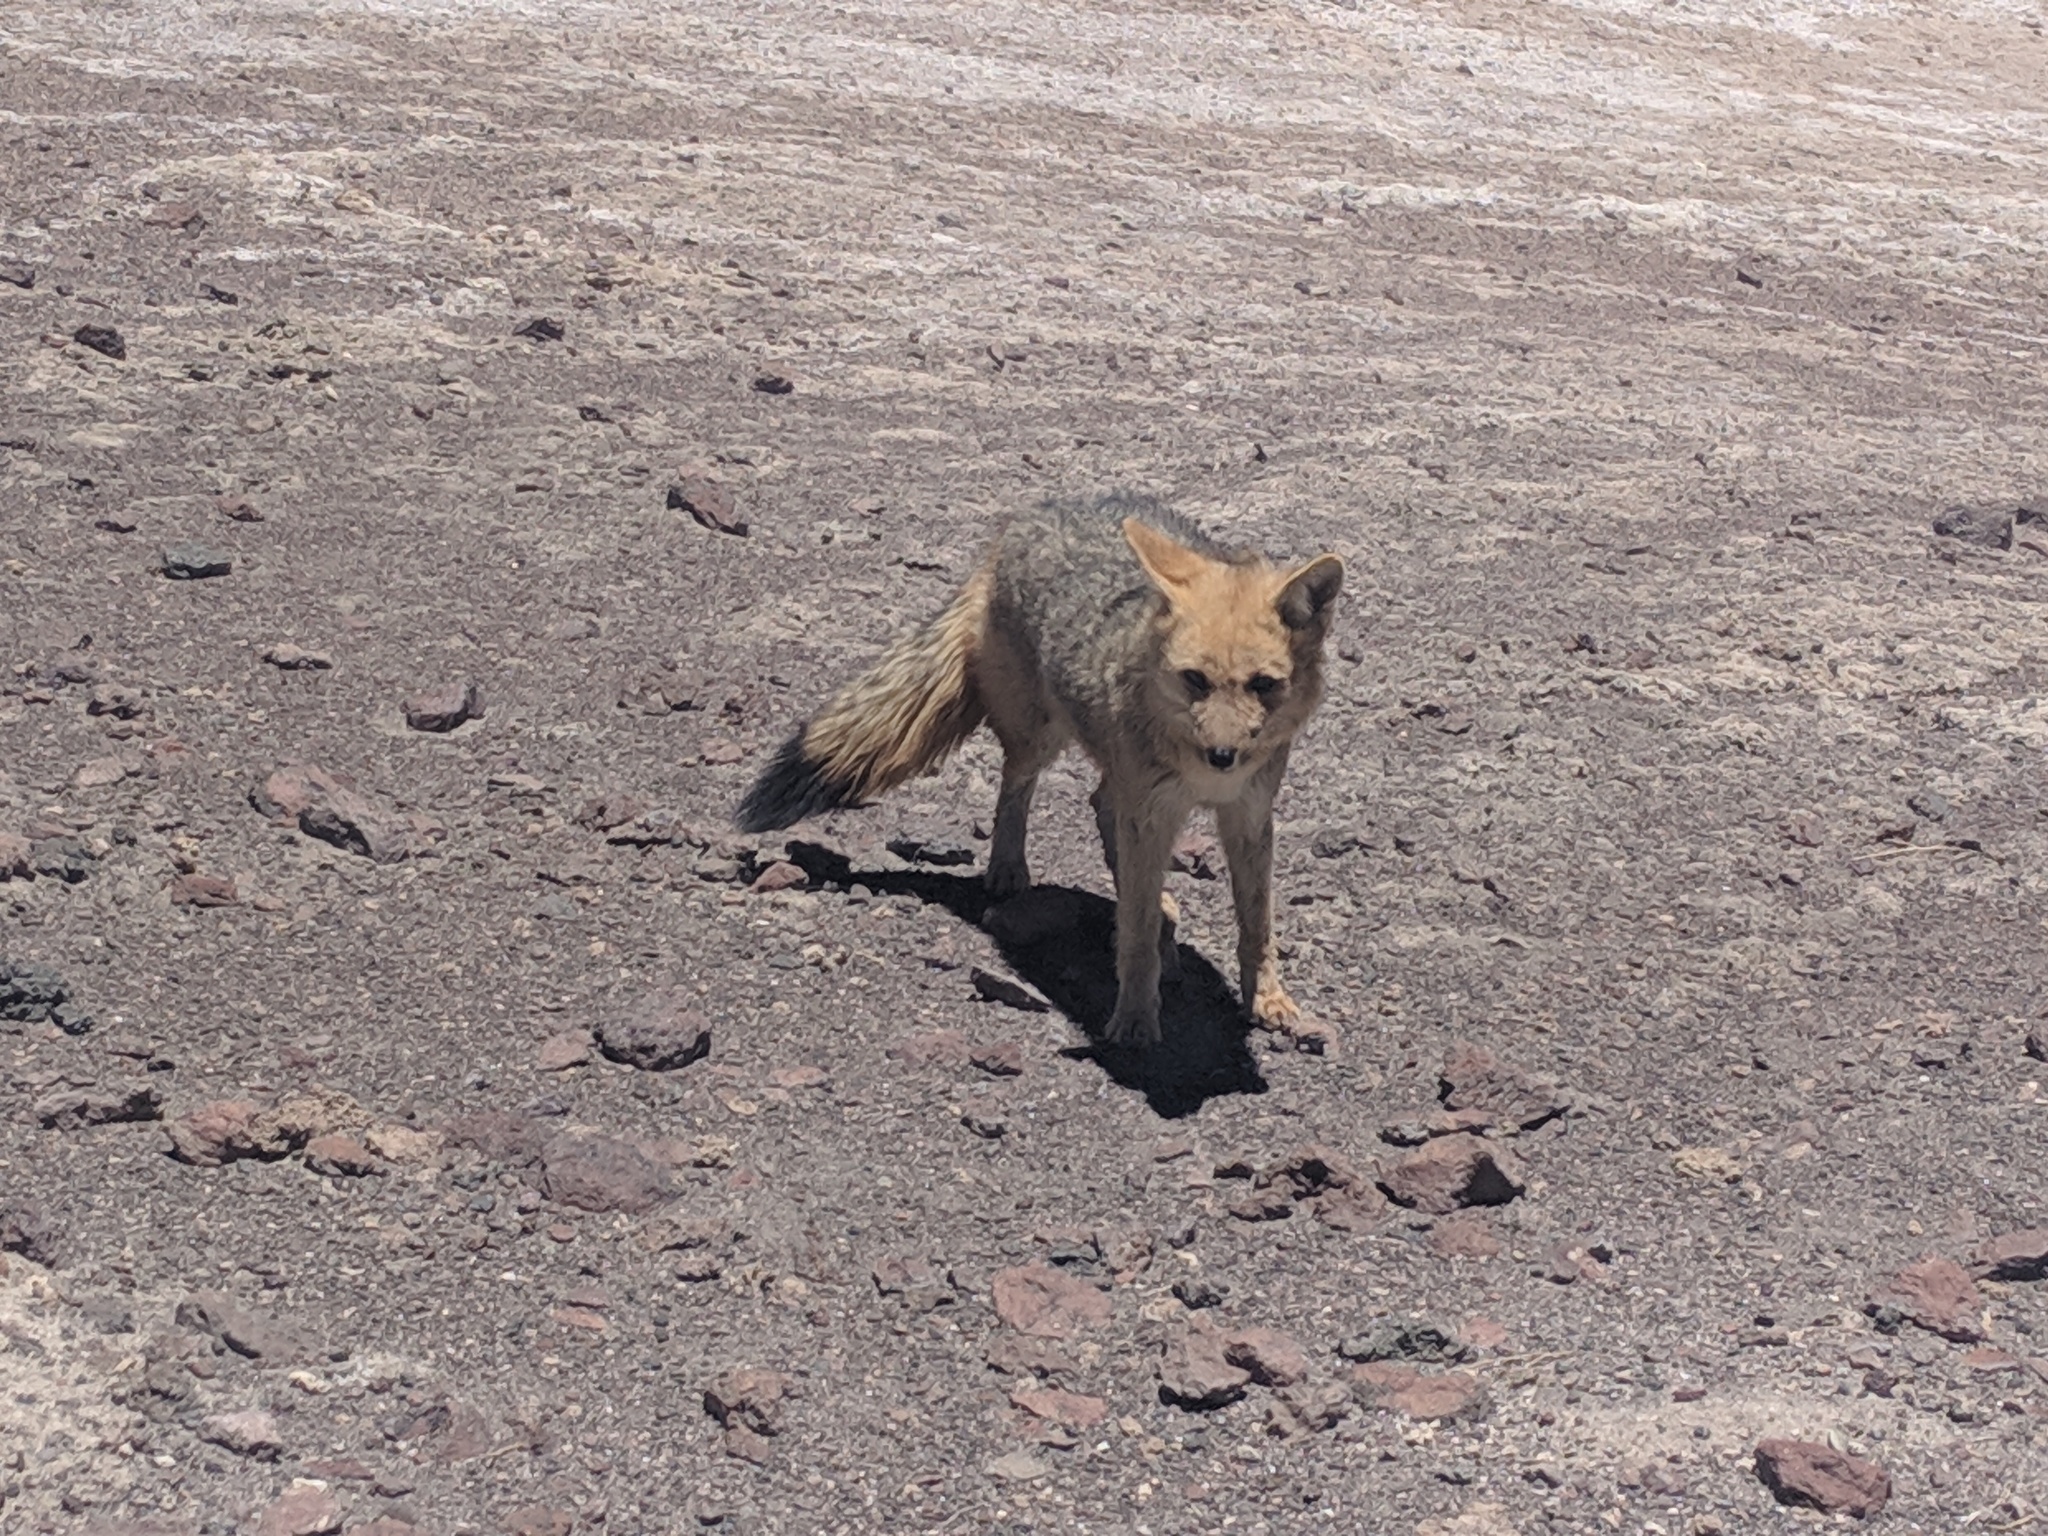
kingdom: Animalia
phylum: Chordata
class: Mammalia
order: Carnivora
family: Canidae
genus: Lycalopex
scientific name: Lycalopex culpaeus
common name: Culpeo
